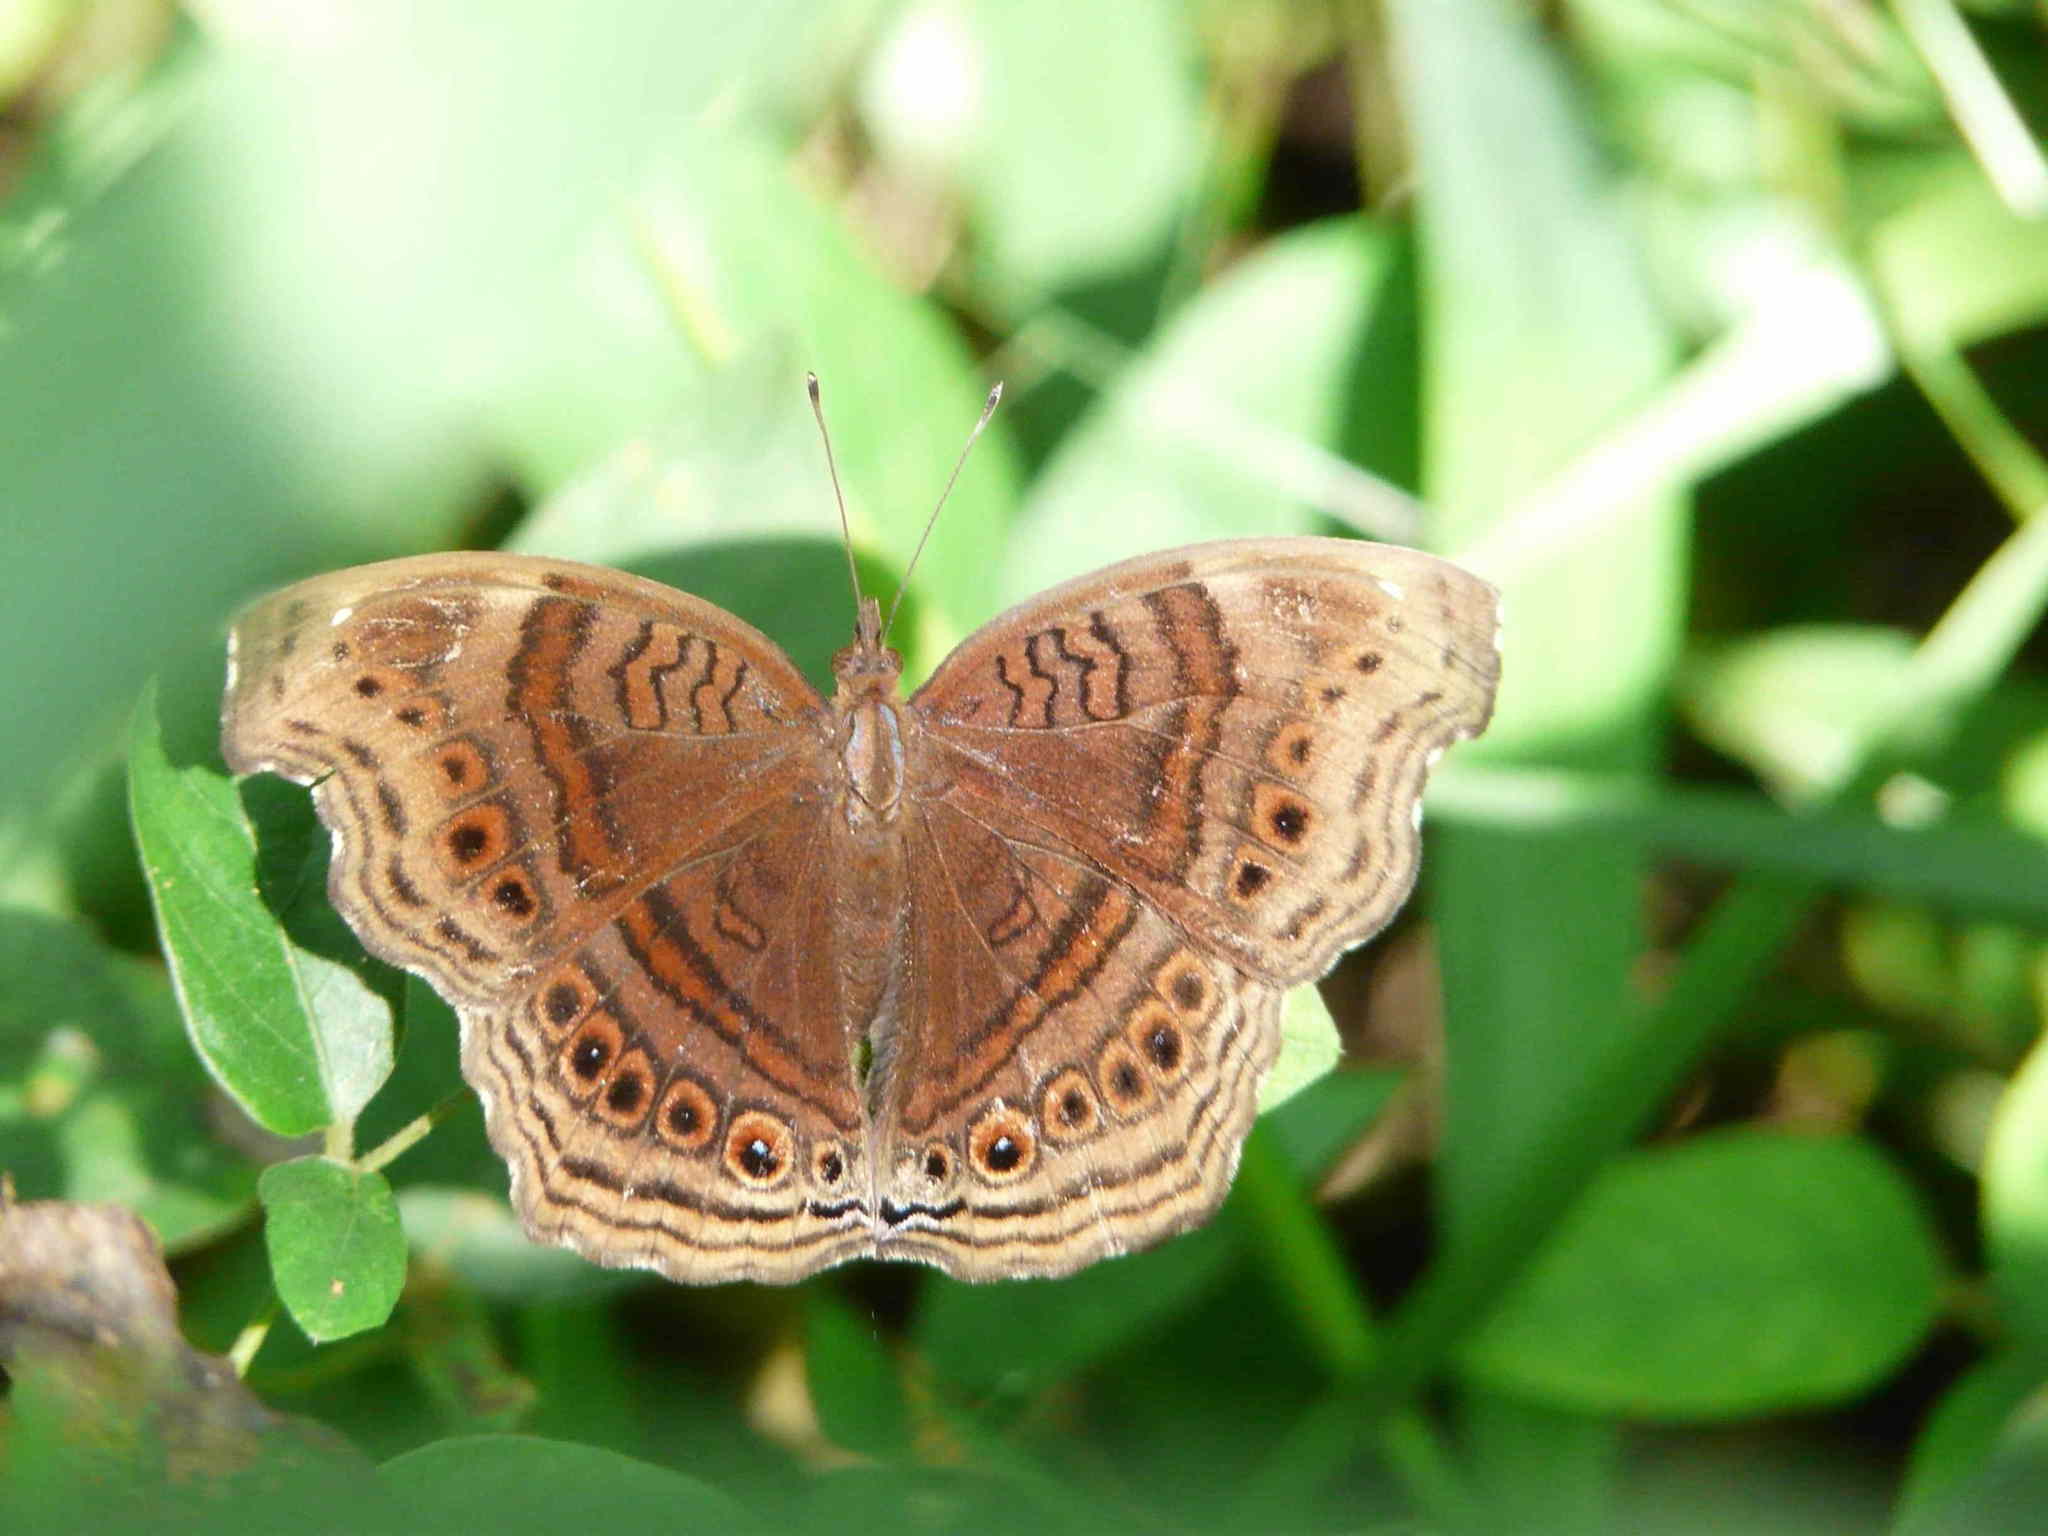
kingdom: Animalia
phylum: Arthropoda
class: Insecta
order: Lepidoptera
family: Nymphalidae
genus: Junonia
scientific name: Junonia stygia
